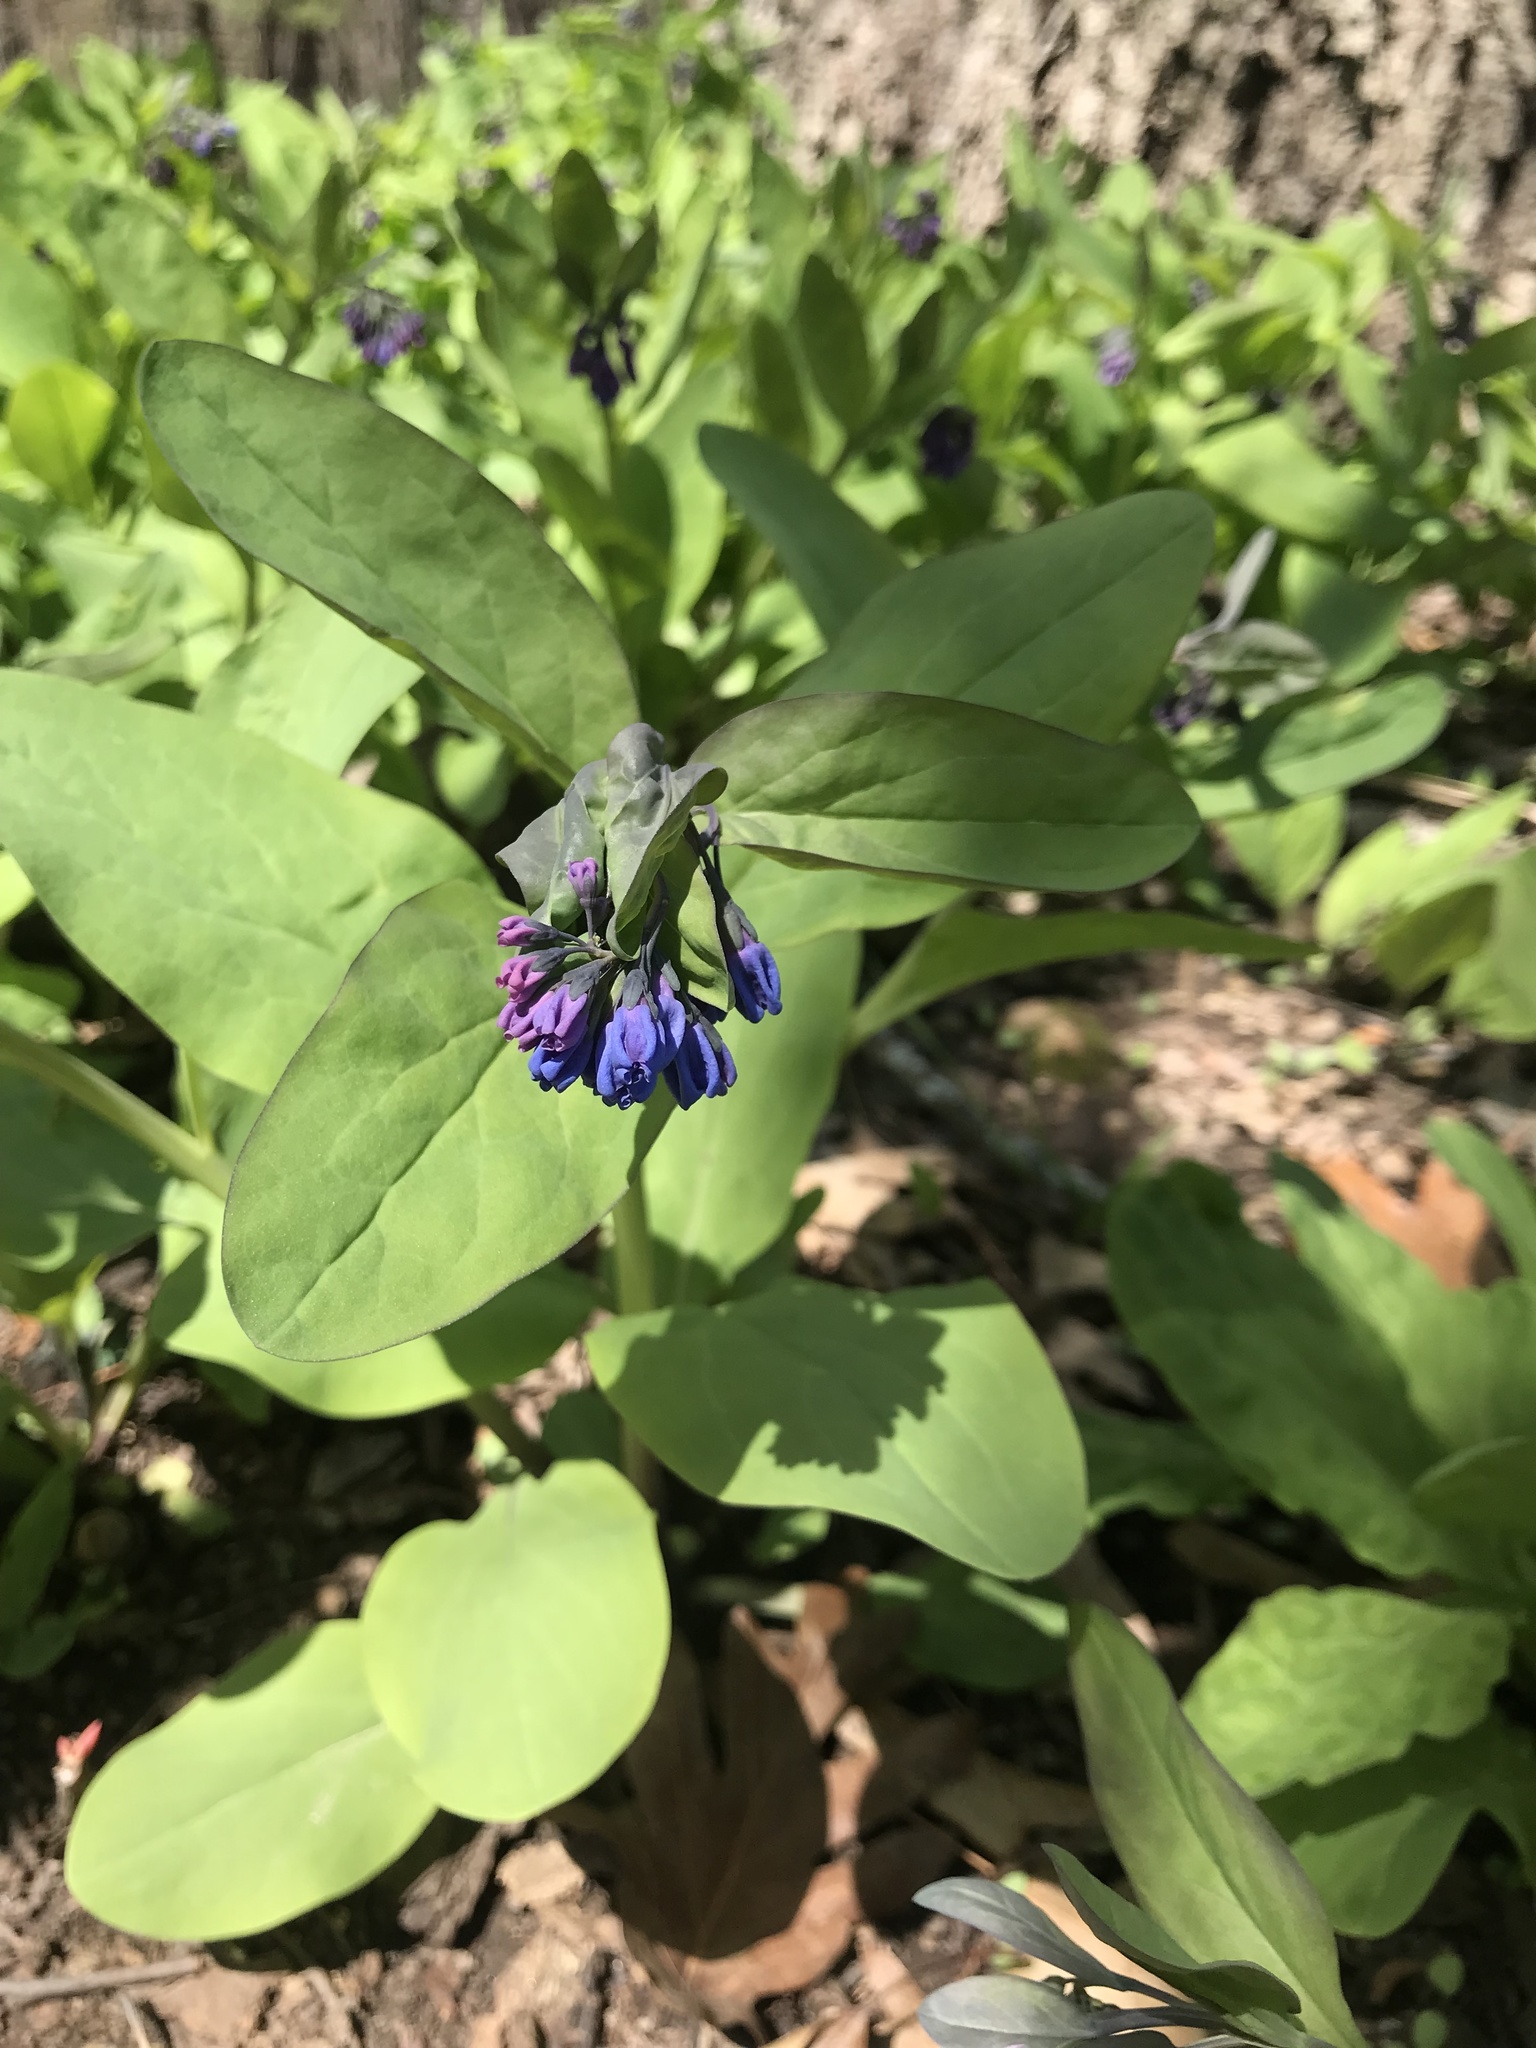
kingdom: Plantae
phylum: Tracheophyta
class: Magnoliopsida
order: Boraginales
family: Boraginaceae
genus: Mertensia
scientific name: Mertensia virginica
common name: Virginia bluebells
